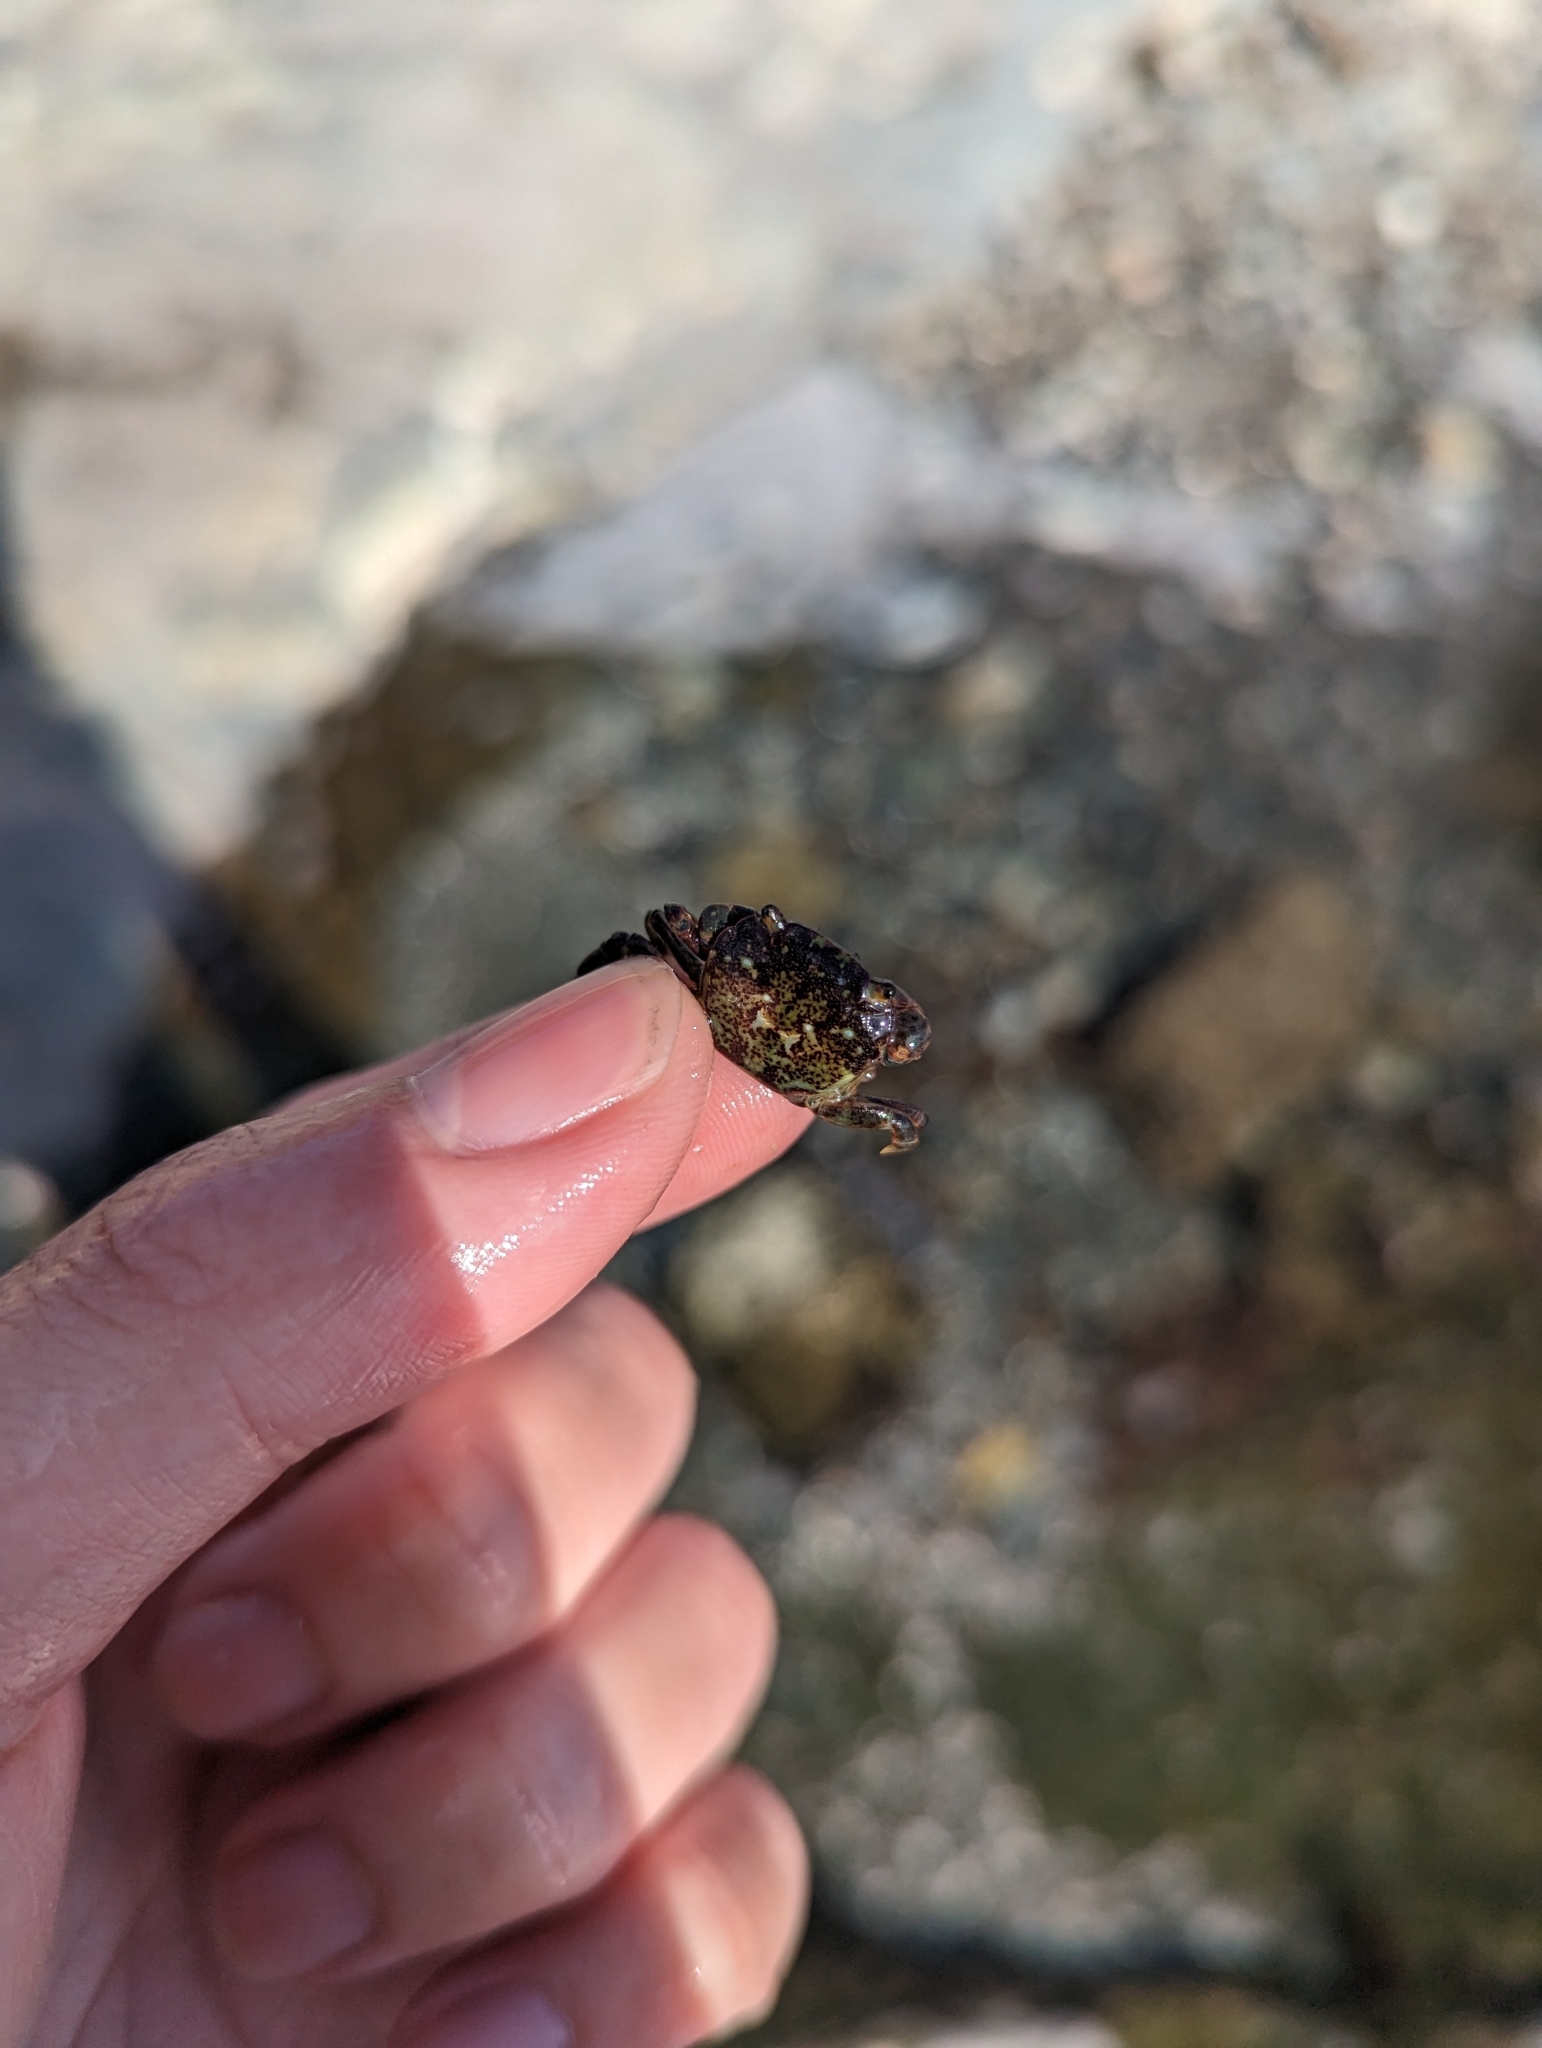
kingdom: Animalia
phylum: Arthropoda
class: Malacostraca
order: Decapoda
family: Varunidae
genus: Hemigrapsus
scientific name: Hemigrapsus nudus
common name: Purple shore crab
